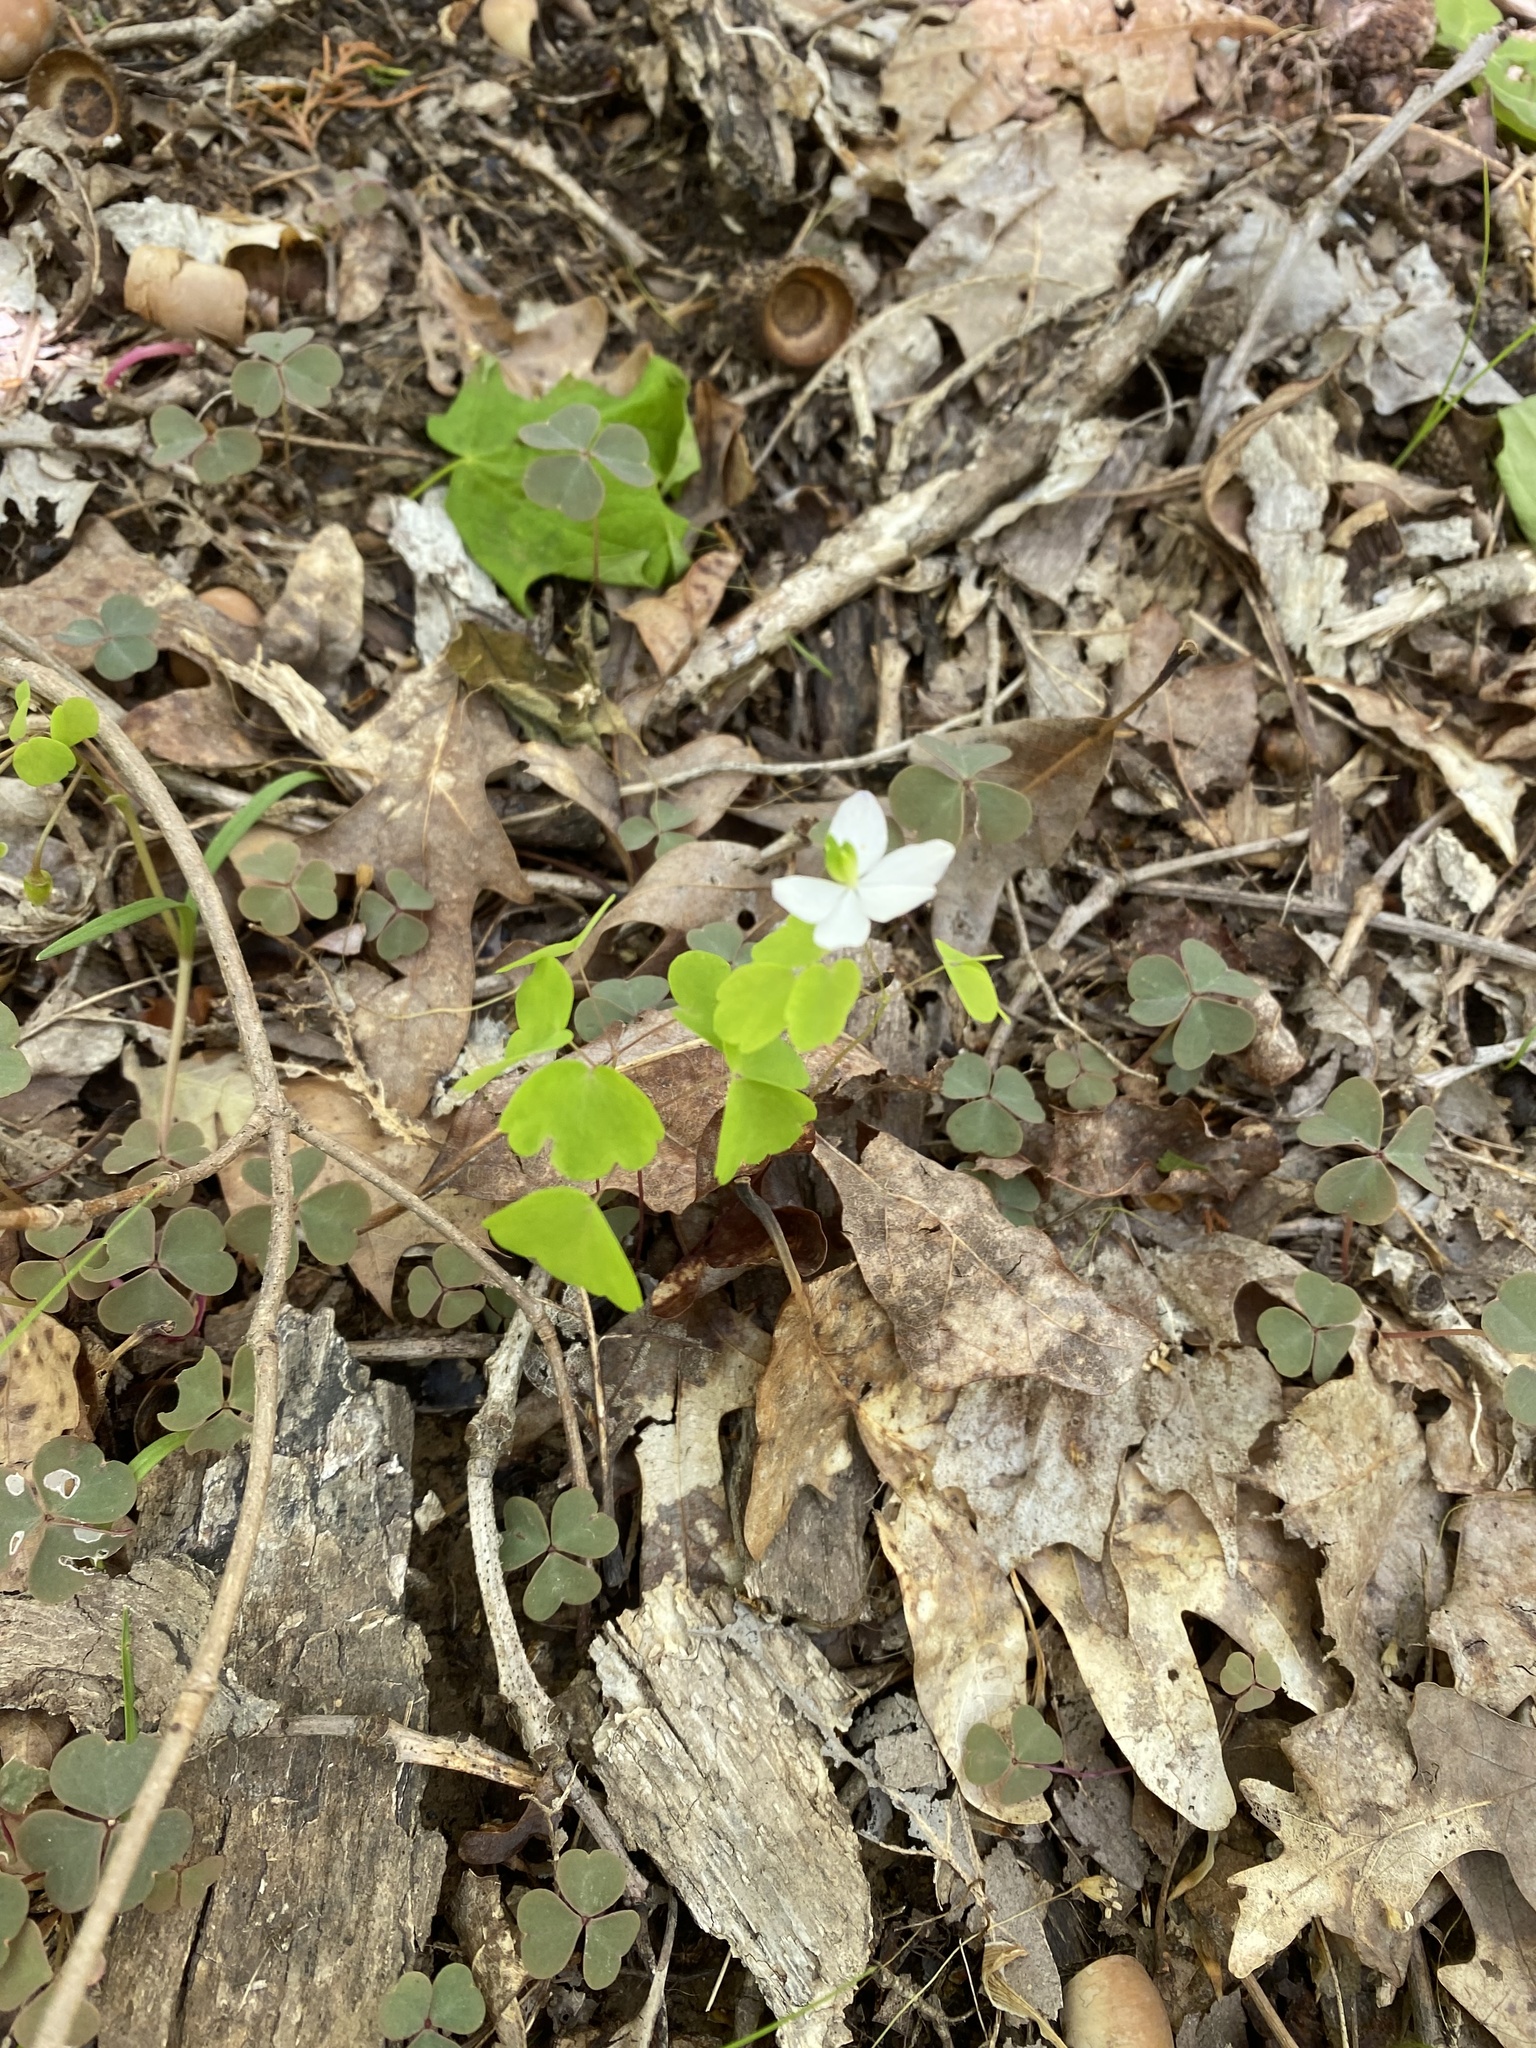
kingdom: Plantae
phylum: Tracheophyta
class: Magnoliopsida
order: Ranunculales
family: Ranunculaceae
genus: Thalictrum
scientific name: Thalictrum thalictroides
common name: Rue-anemone
